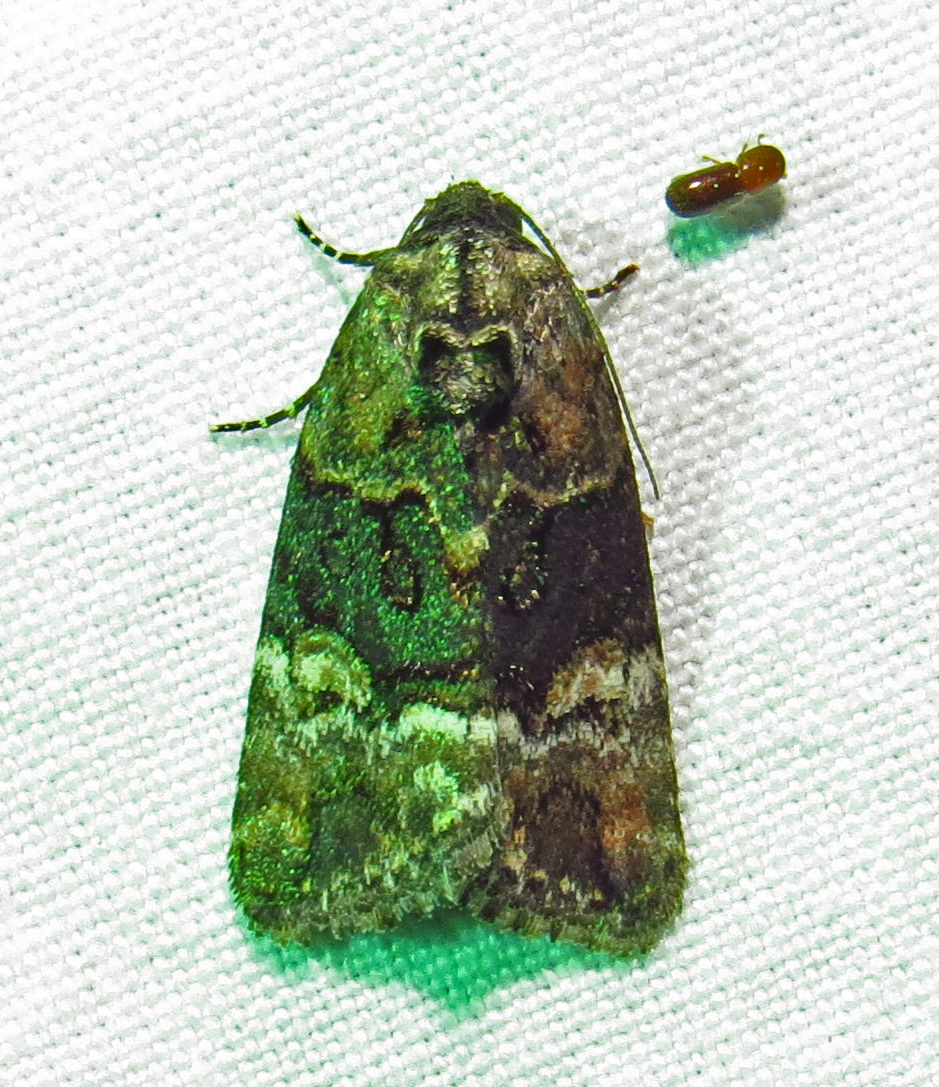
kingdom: Animalia
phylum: Arthropoda
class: Insecta
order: Lepidoptera
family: Noctuidae
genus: Elaphria
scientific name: Elaphria georgei
